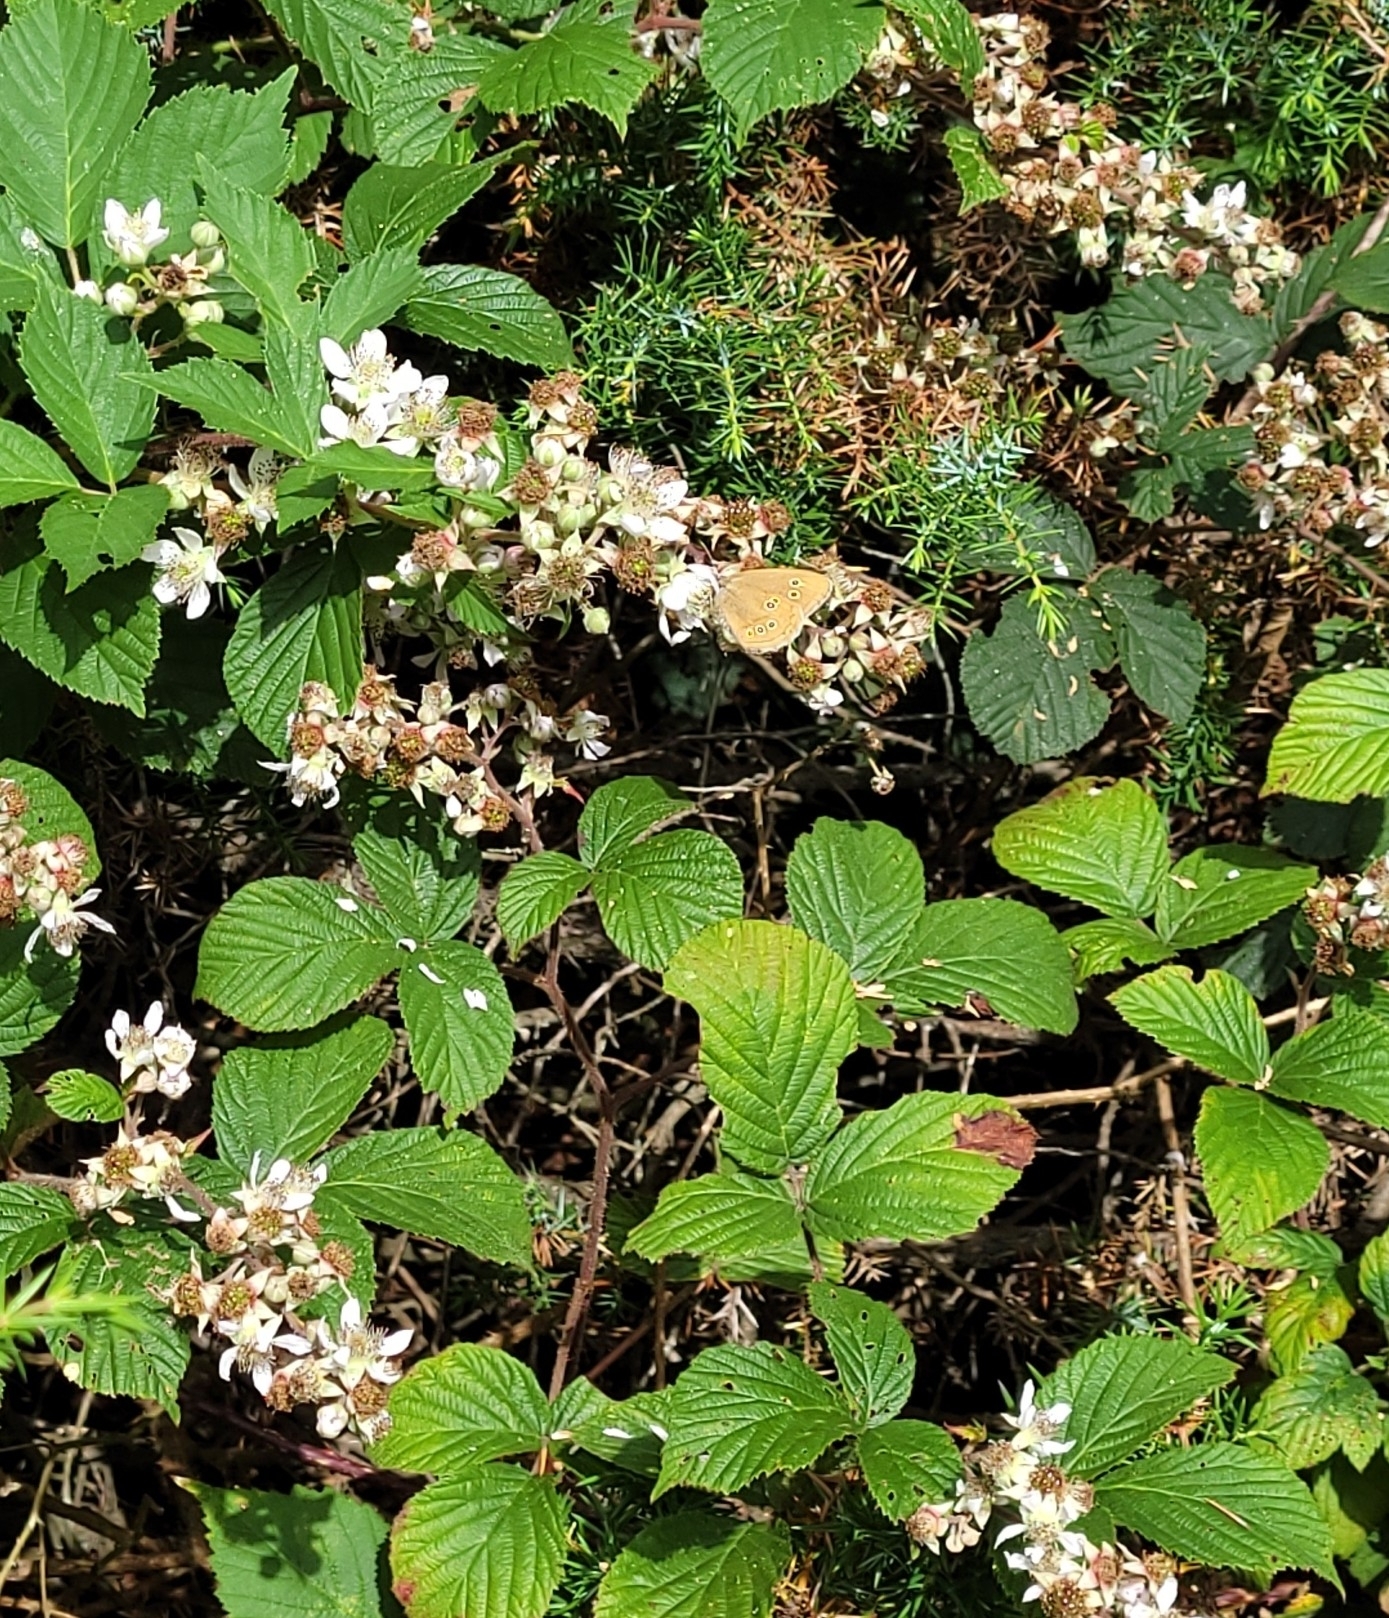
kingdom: Animalia
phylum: Arthropoda
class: Insecta
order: Lepidoptera
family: Nymphalidae
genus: Aphantopus
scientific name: Aphantopus hyperantus
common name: Ringlet
